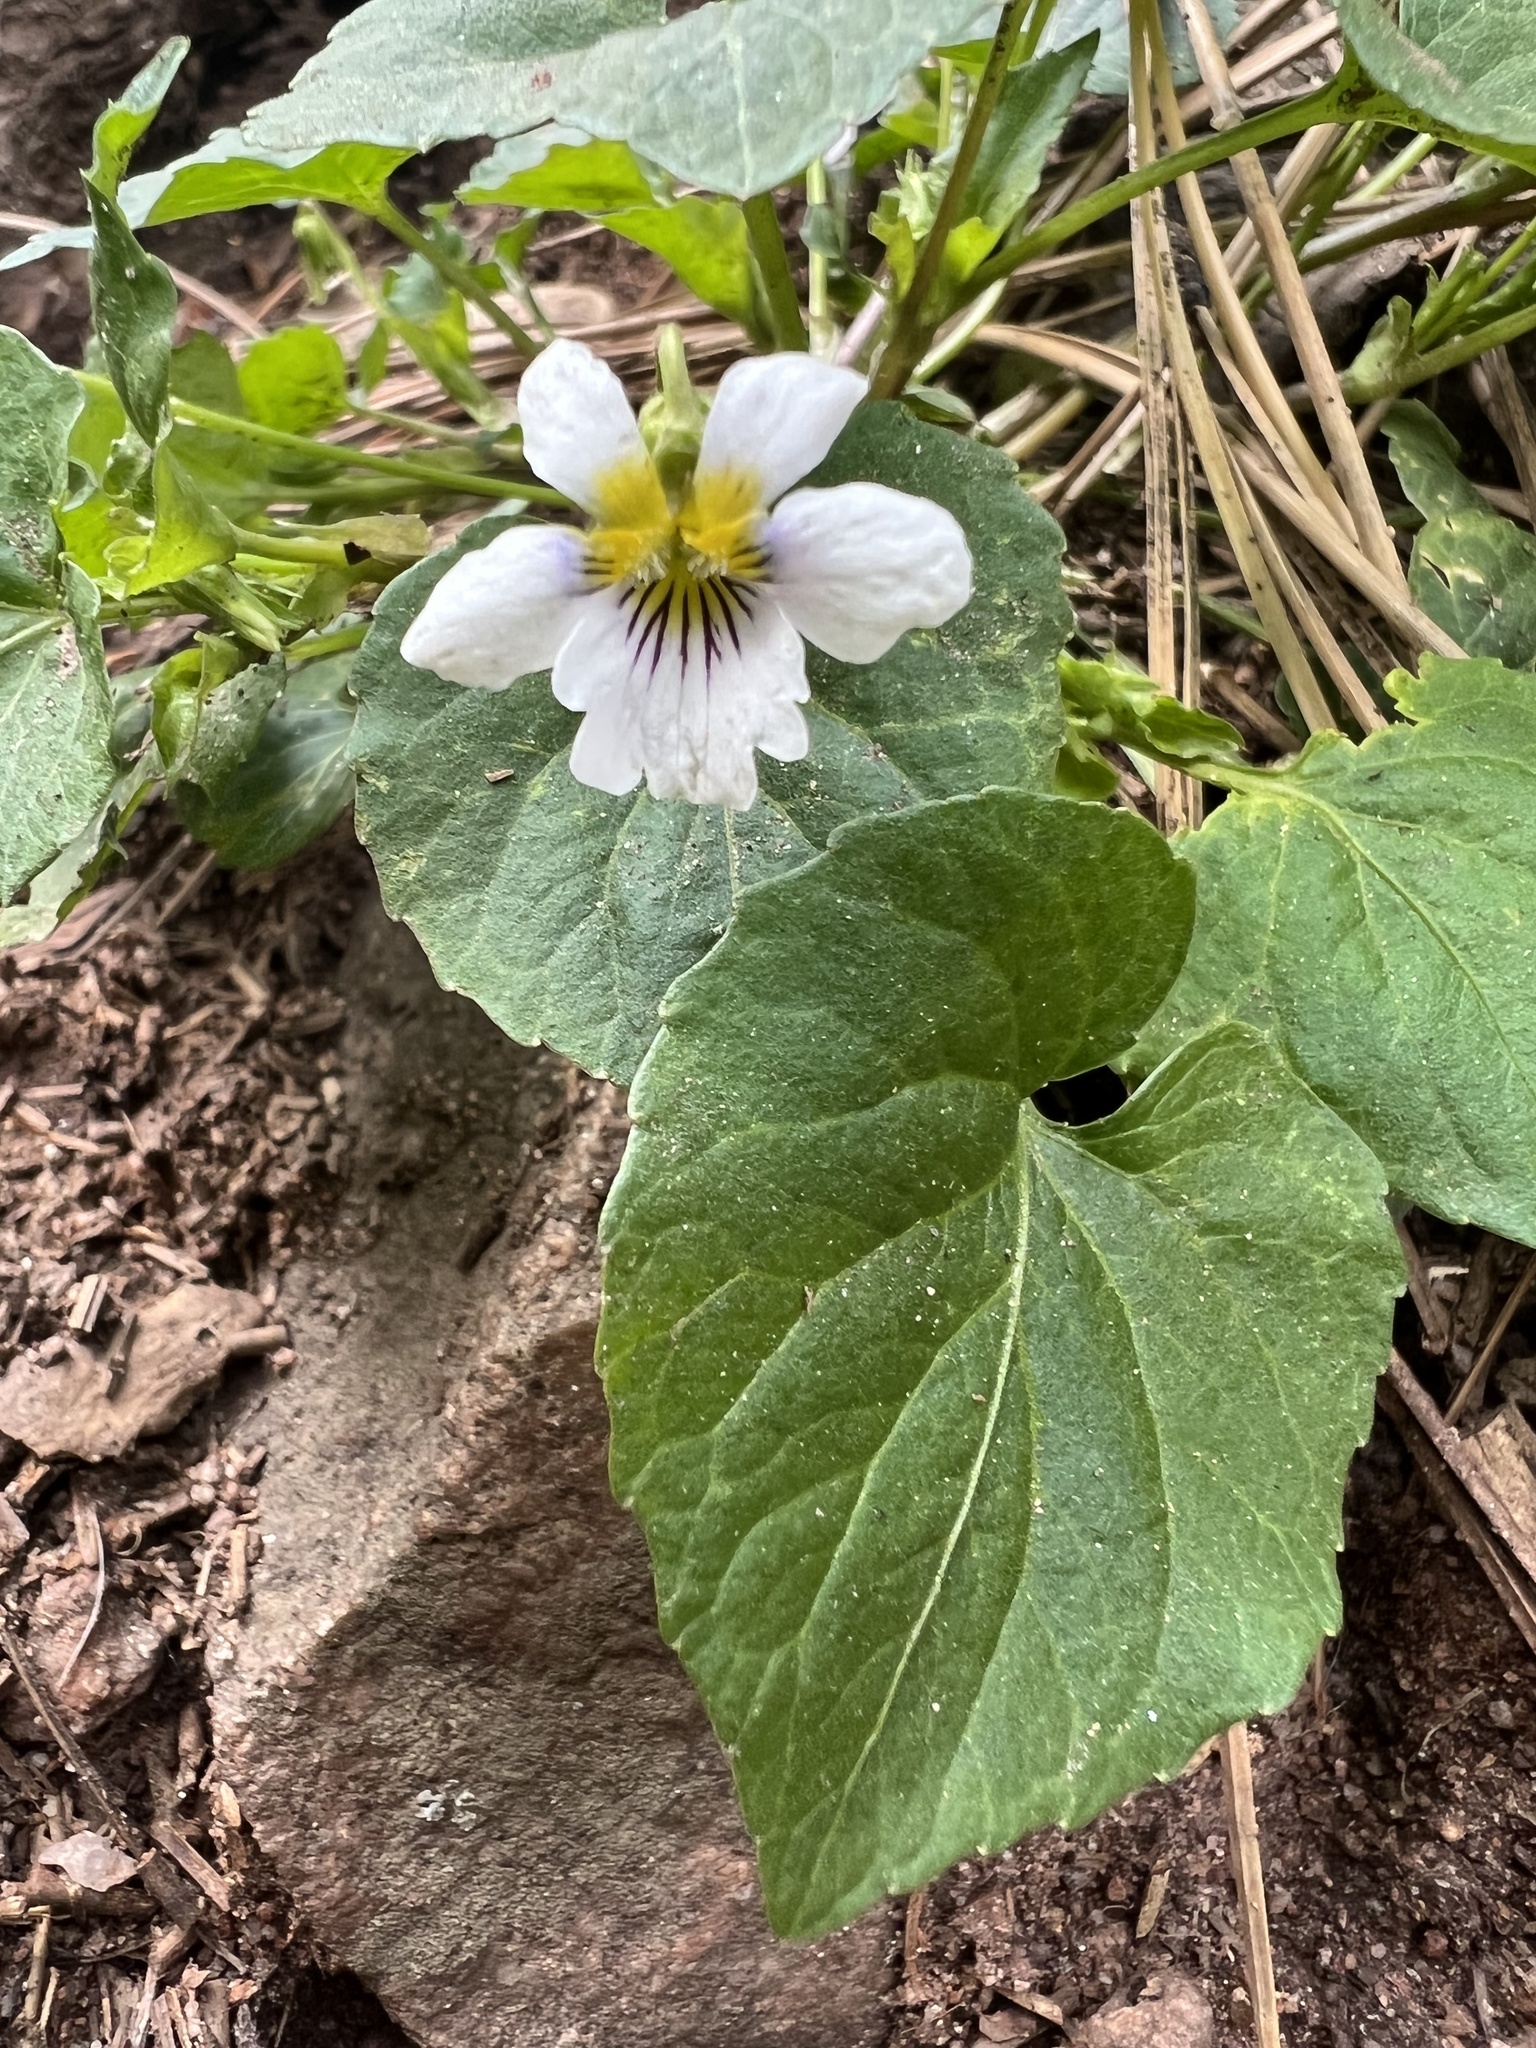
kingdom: Plantae
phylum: Tracheophyta
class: Magnoliopsida
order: Malpighiales
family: Violaceae
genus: Viola
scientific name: Viola canadensis
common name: Canada violet
